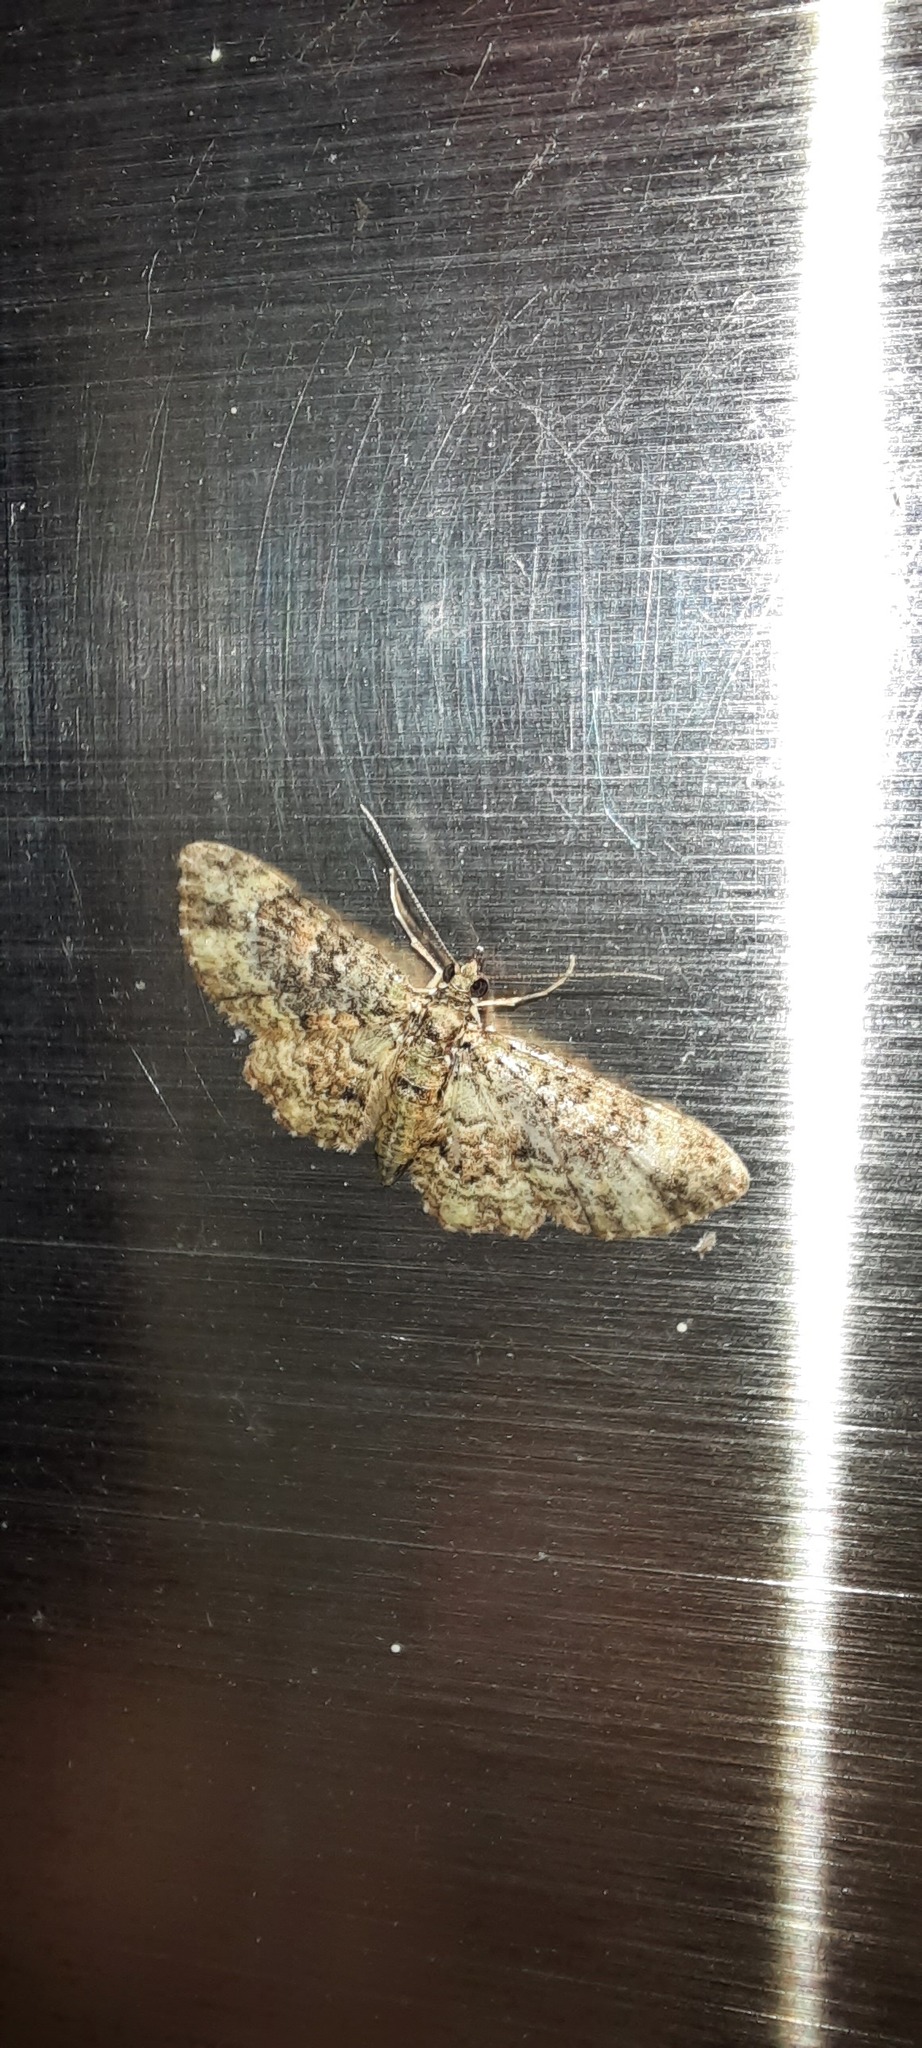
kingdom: Animalia
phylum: Arthropoda
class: Insecta
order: Lepidoptera
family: Geometridae
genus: Chloroclystis
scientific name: Chloroclystis catastreptes
